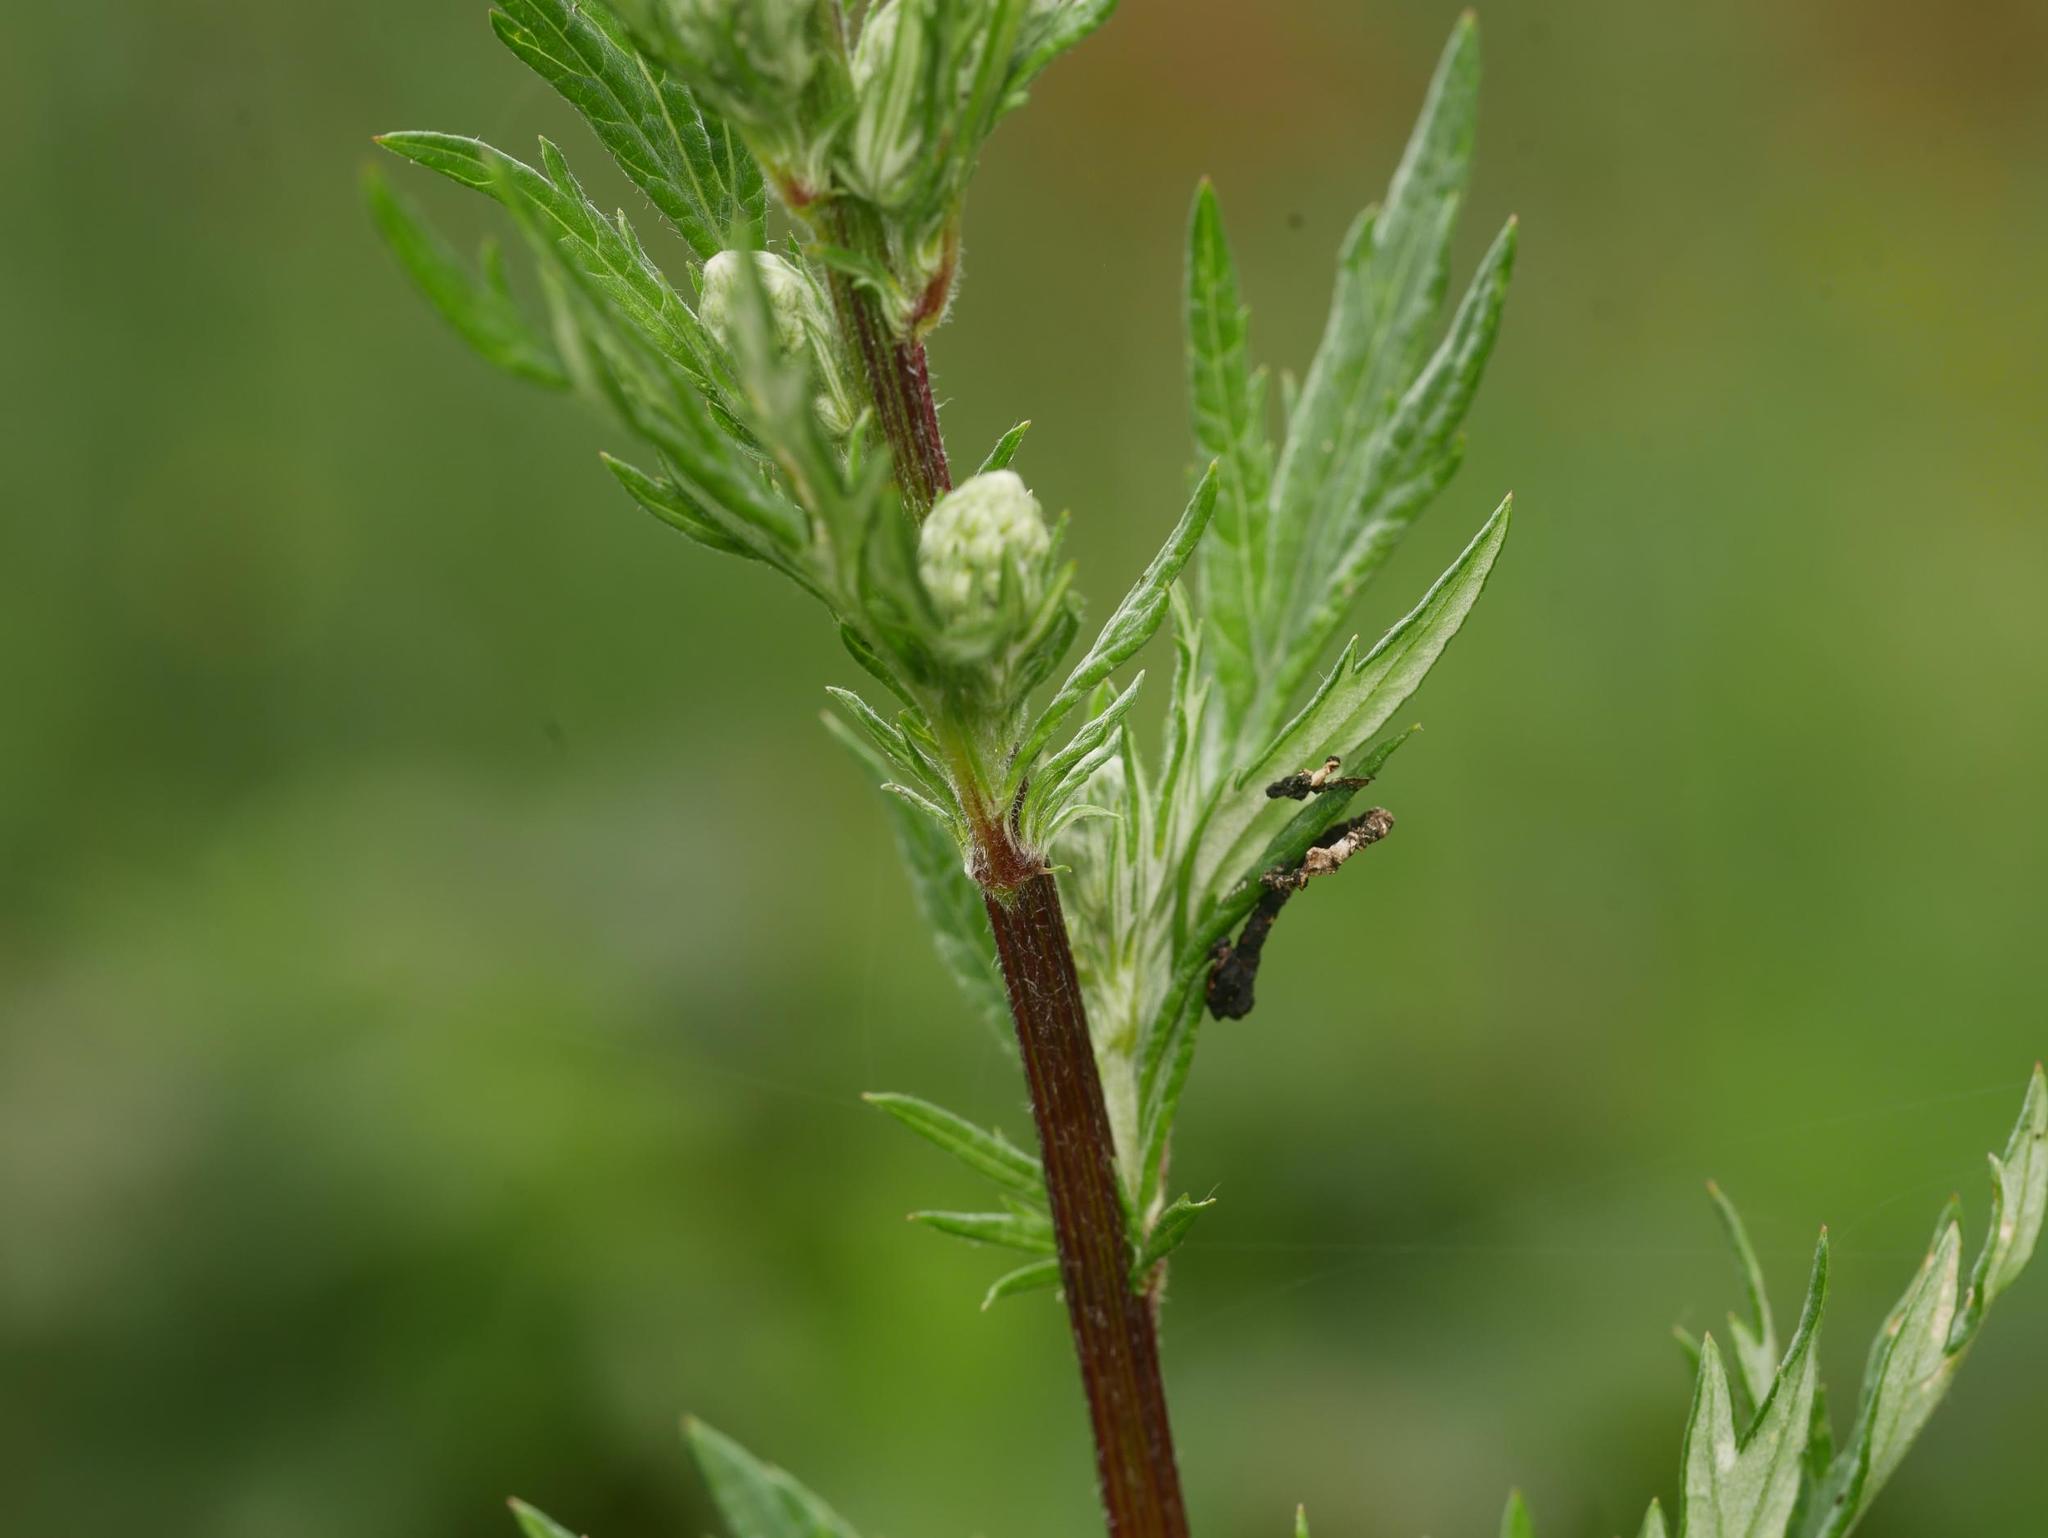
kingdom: Plantae
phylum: Tracheophyta
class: Magnoliopsida
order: Asterales
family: Asteraceae
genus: Artemisia
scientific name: Artemisia vulgaris
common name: Mugwort
